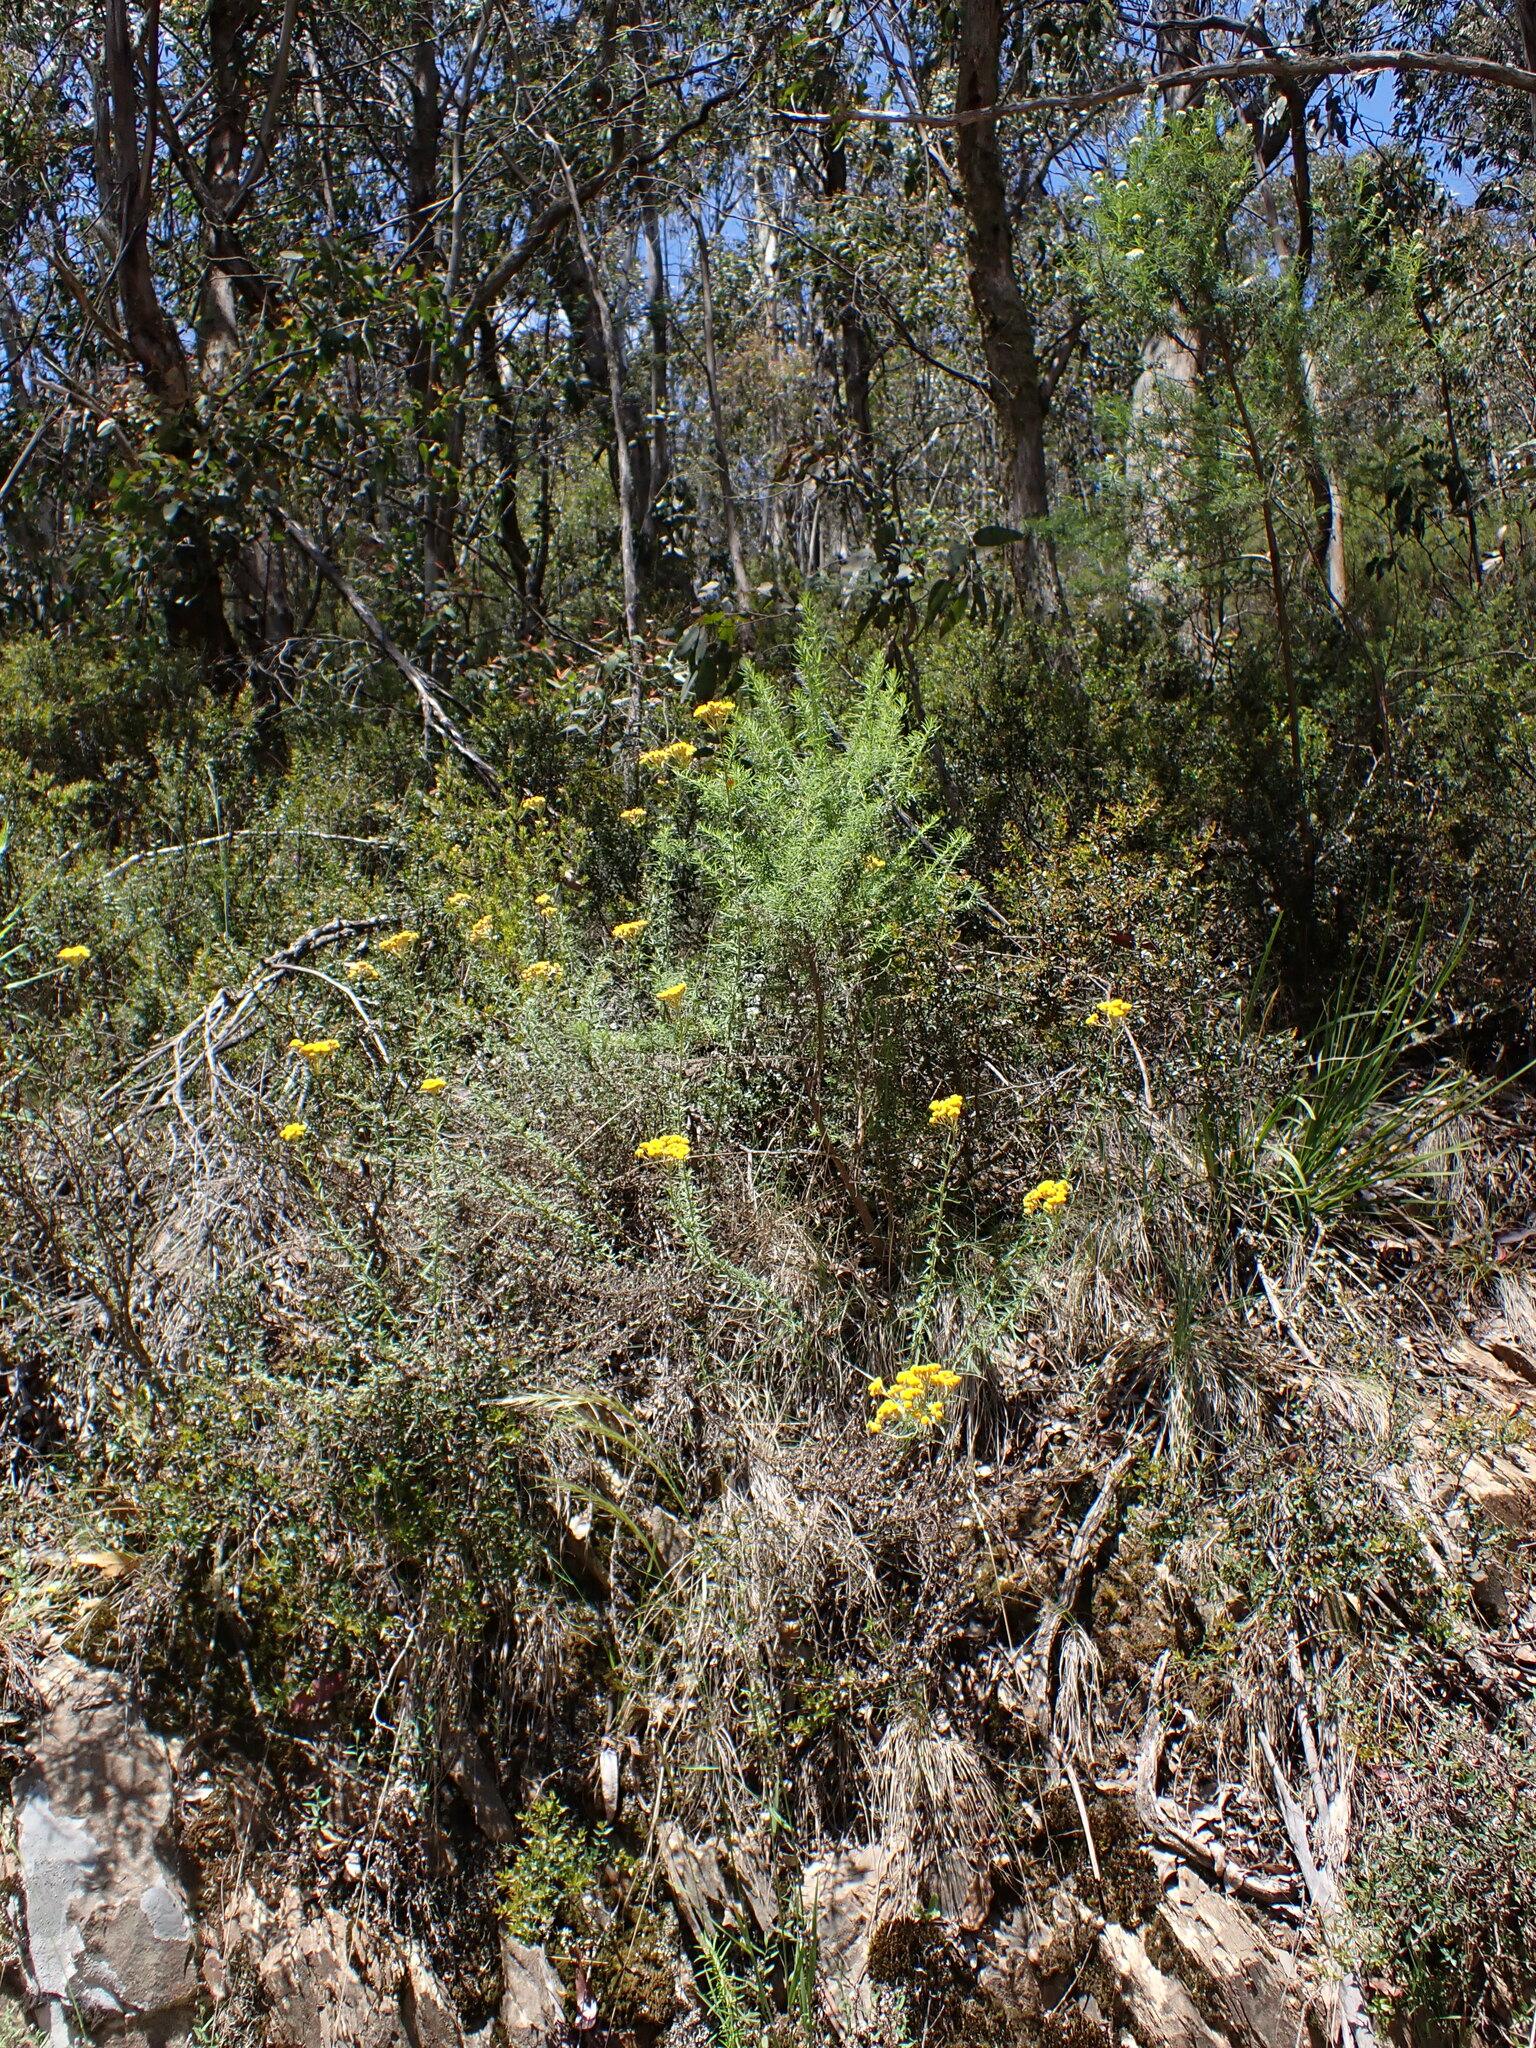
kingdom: Plantae
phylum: Tracheophyta
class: Magnoliopsida
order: Asterales
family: Asteraceae
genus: Chrysocephalum
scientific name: Chrysocephalum semipapposum
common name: Clustered everlasting
